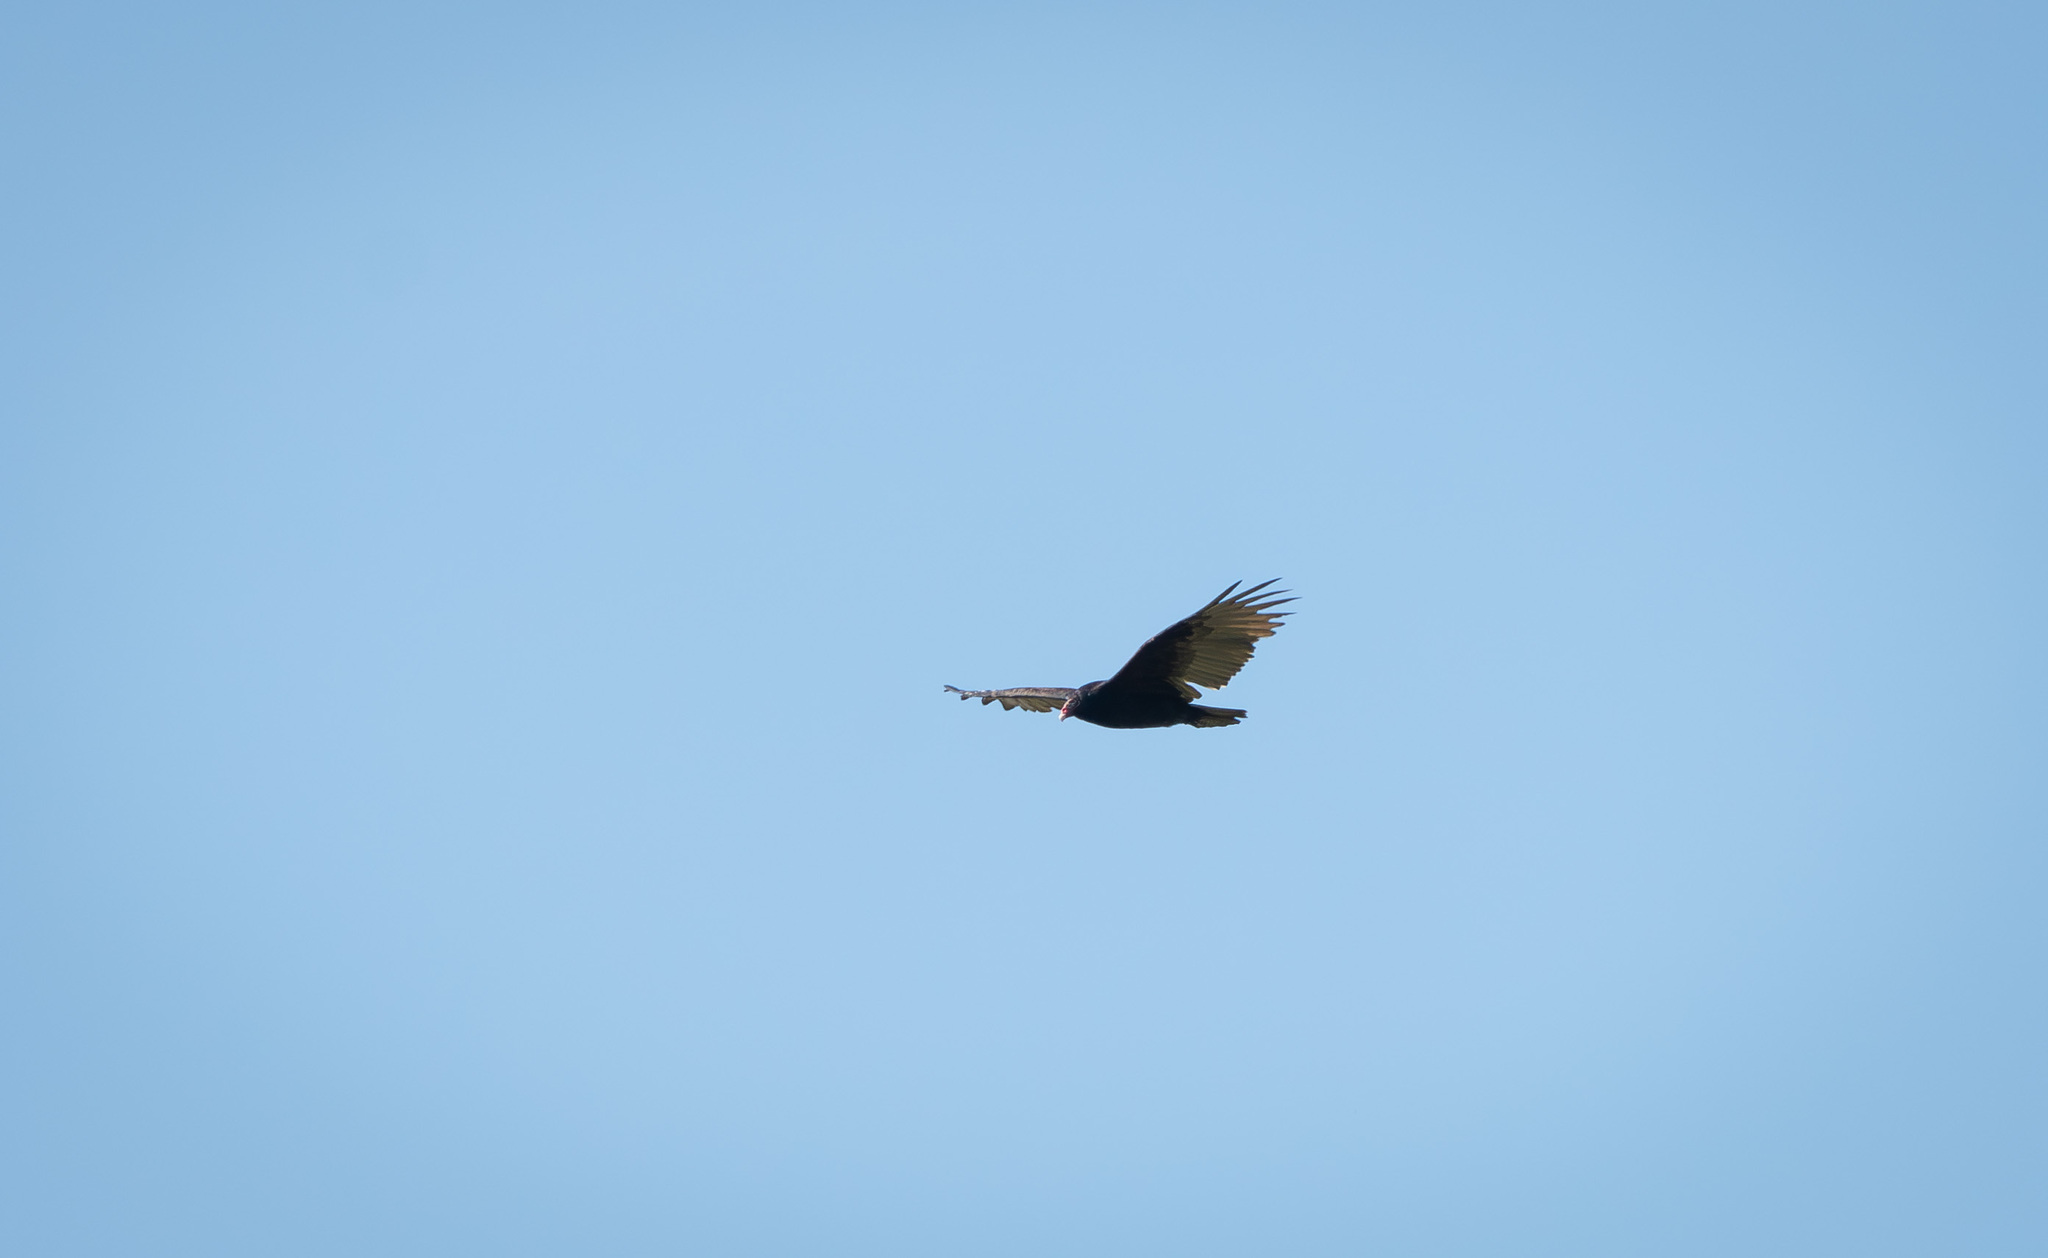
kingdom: Animalia
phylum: Chordata
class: Aves
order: Accipitriformes
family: Cathartidae
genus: Cathartes
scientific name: Cathartes aura
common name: Turkey vulture
